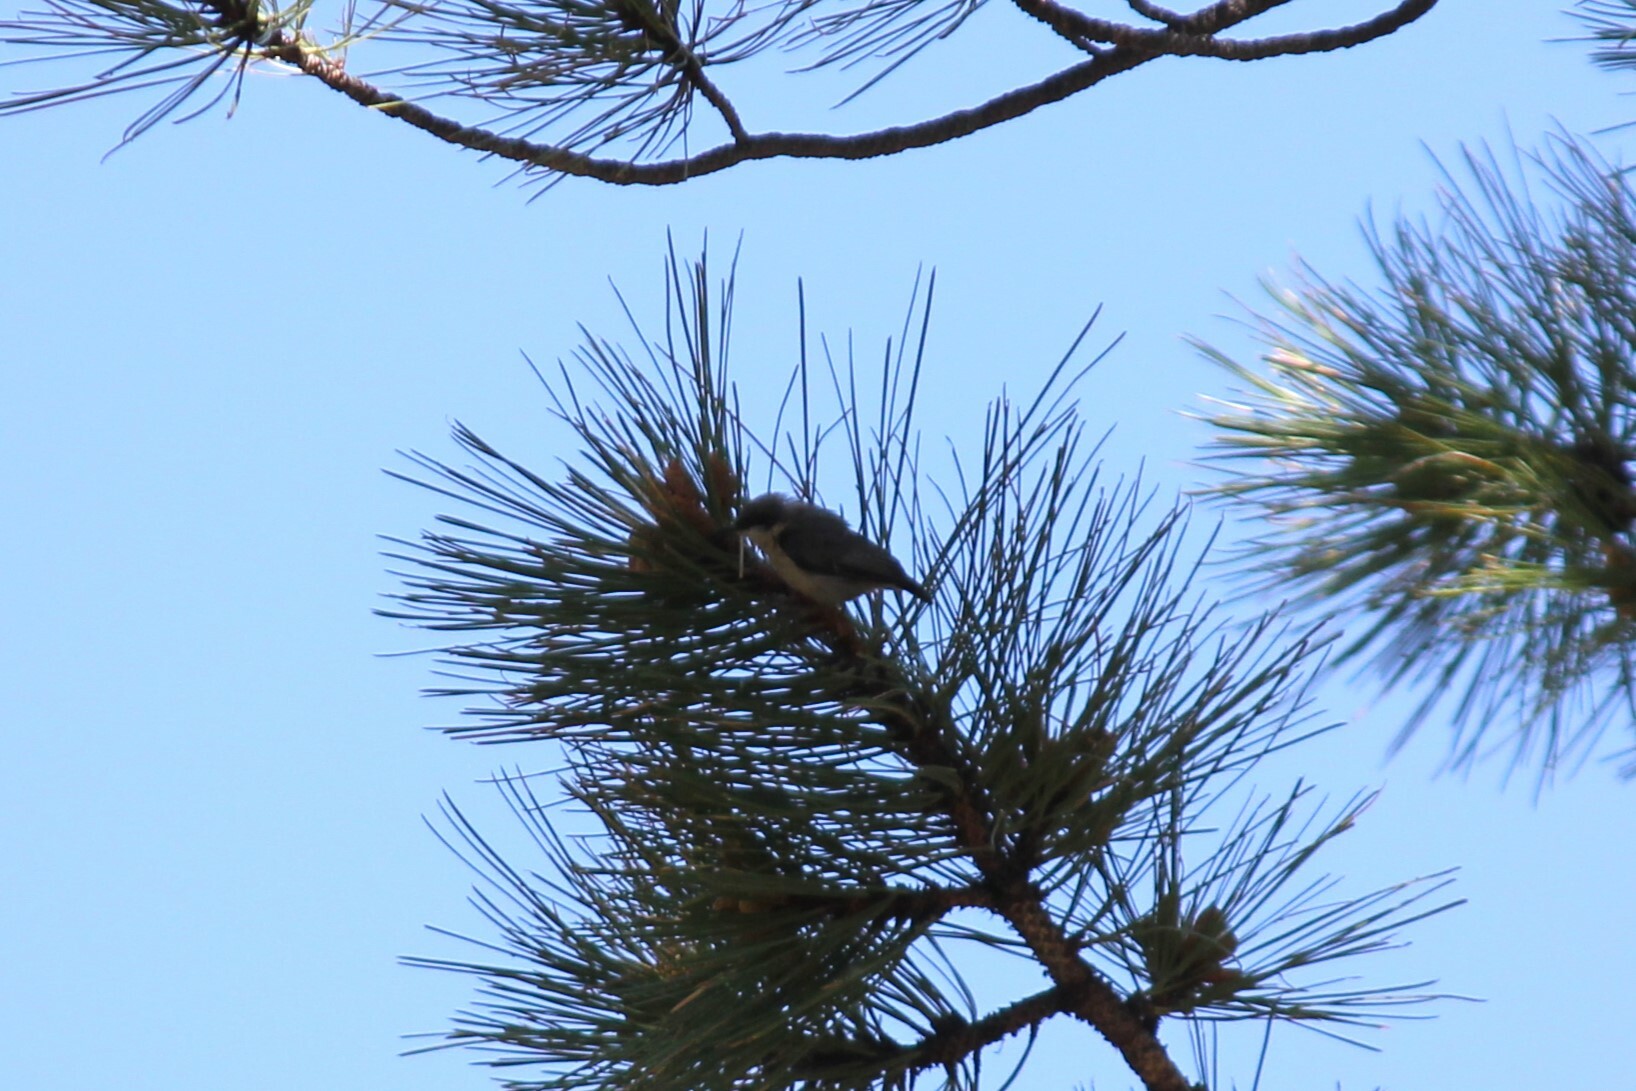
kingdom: Animalia
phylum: Chordata
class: Aves
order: Passeriformes
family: Sittidae
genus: Sitta
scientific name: Sitta pygmaea
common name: Pygmy nuthatch
